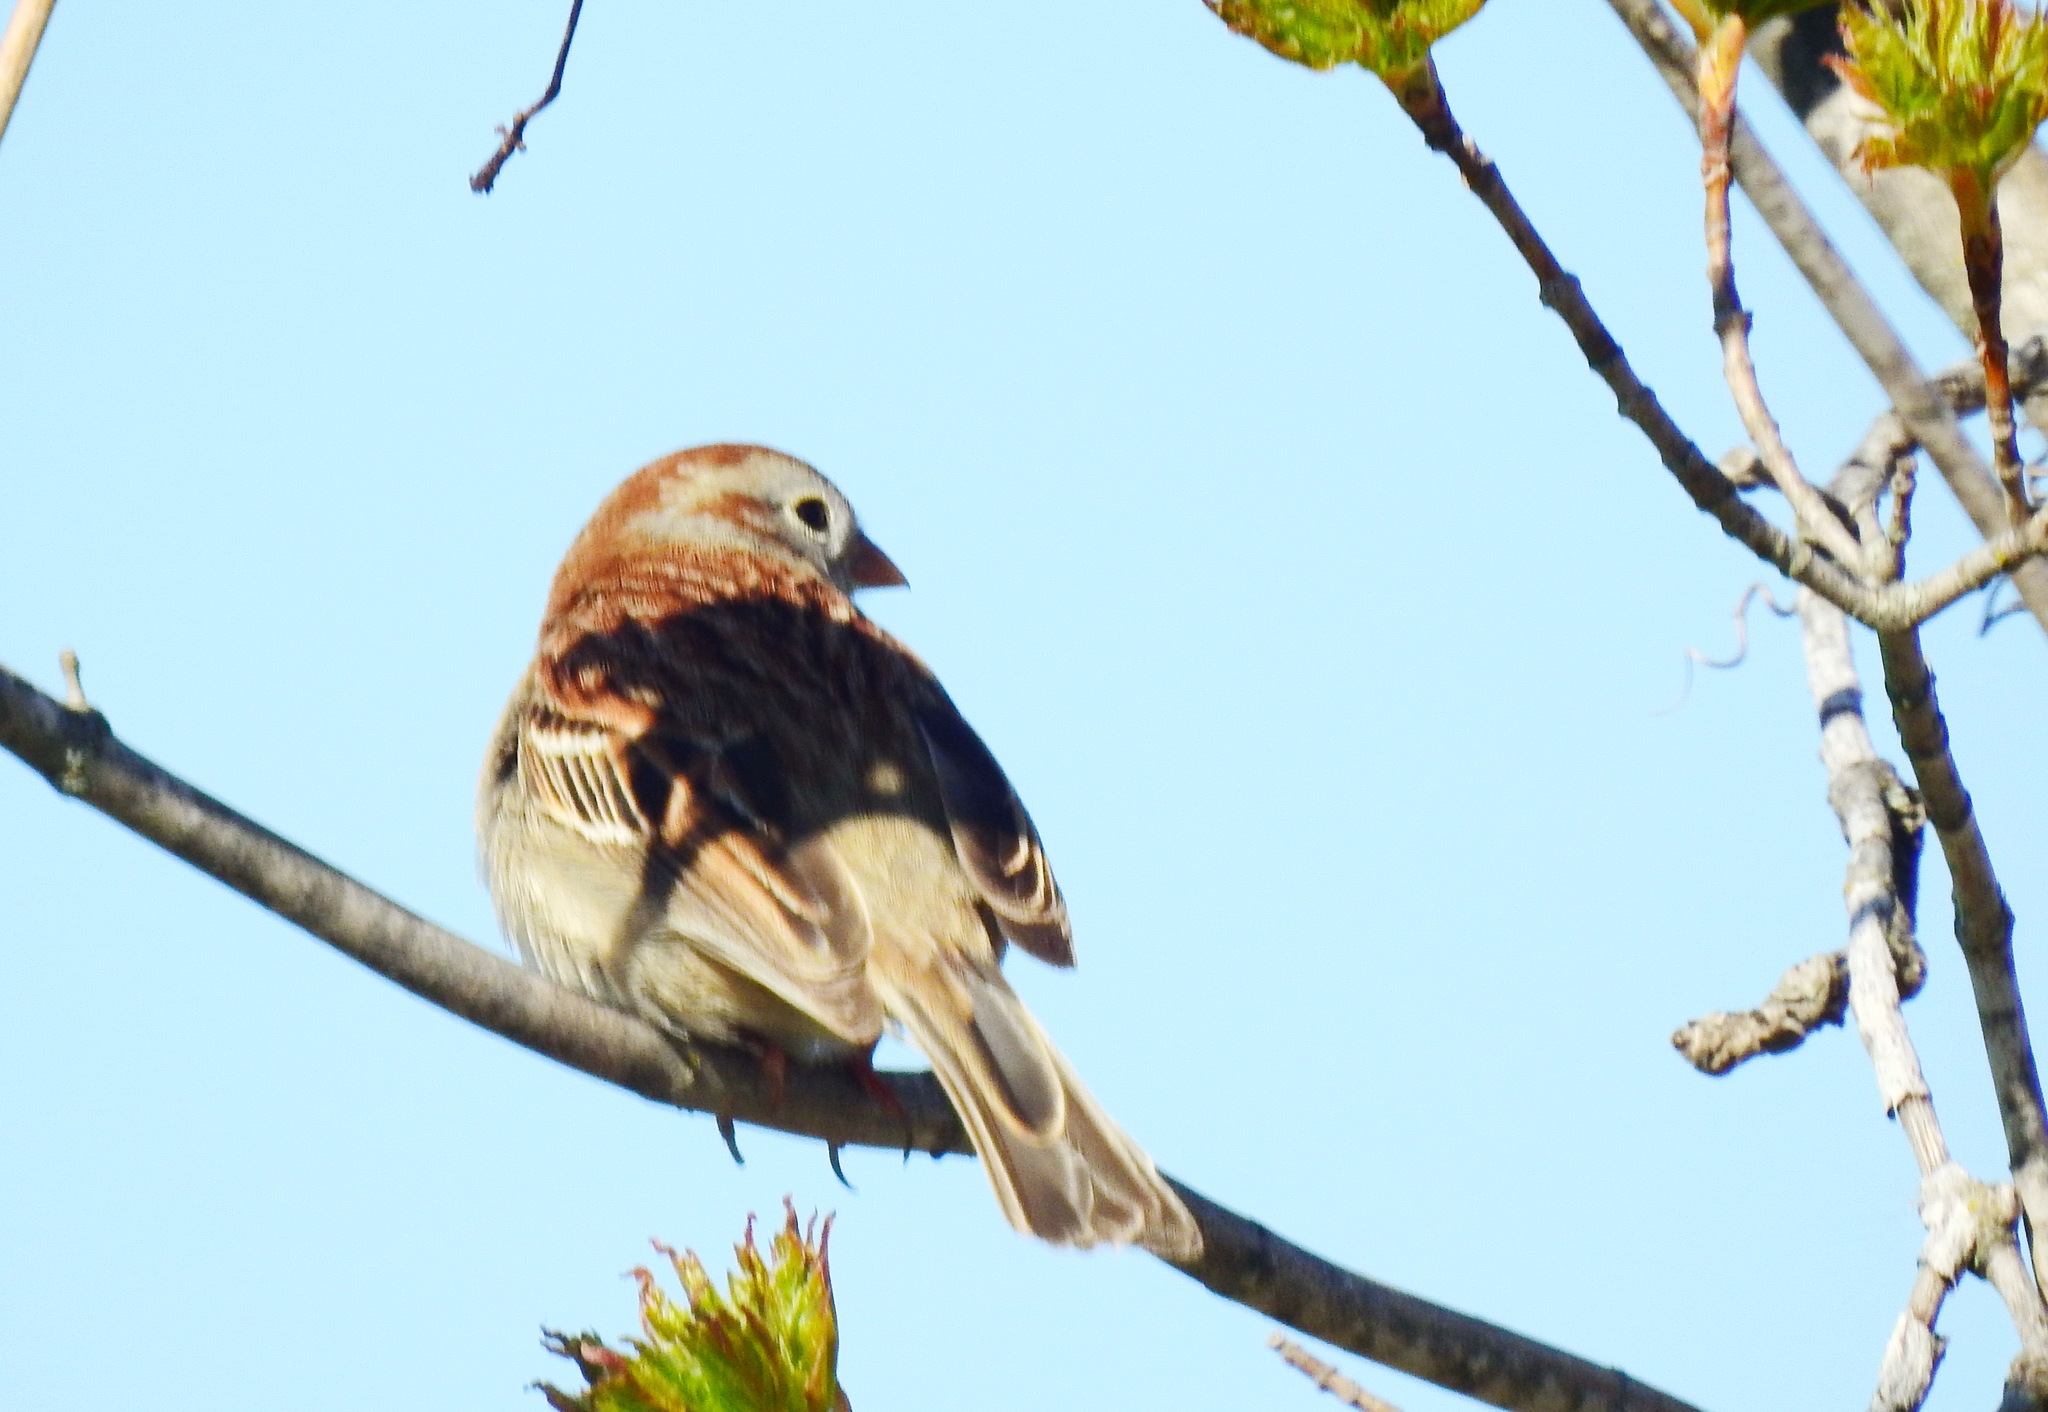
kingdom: Animalia
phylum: Chordata
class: Aves
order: Passeriformes
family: Passerellidae
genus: Spizella
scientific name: Spizella pusilla
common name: Field sparrow
